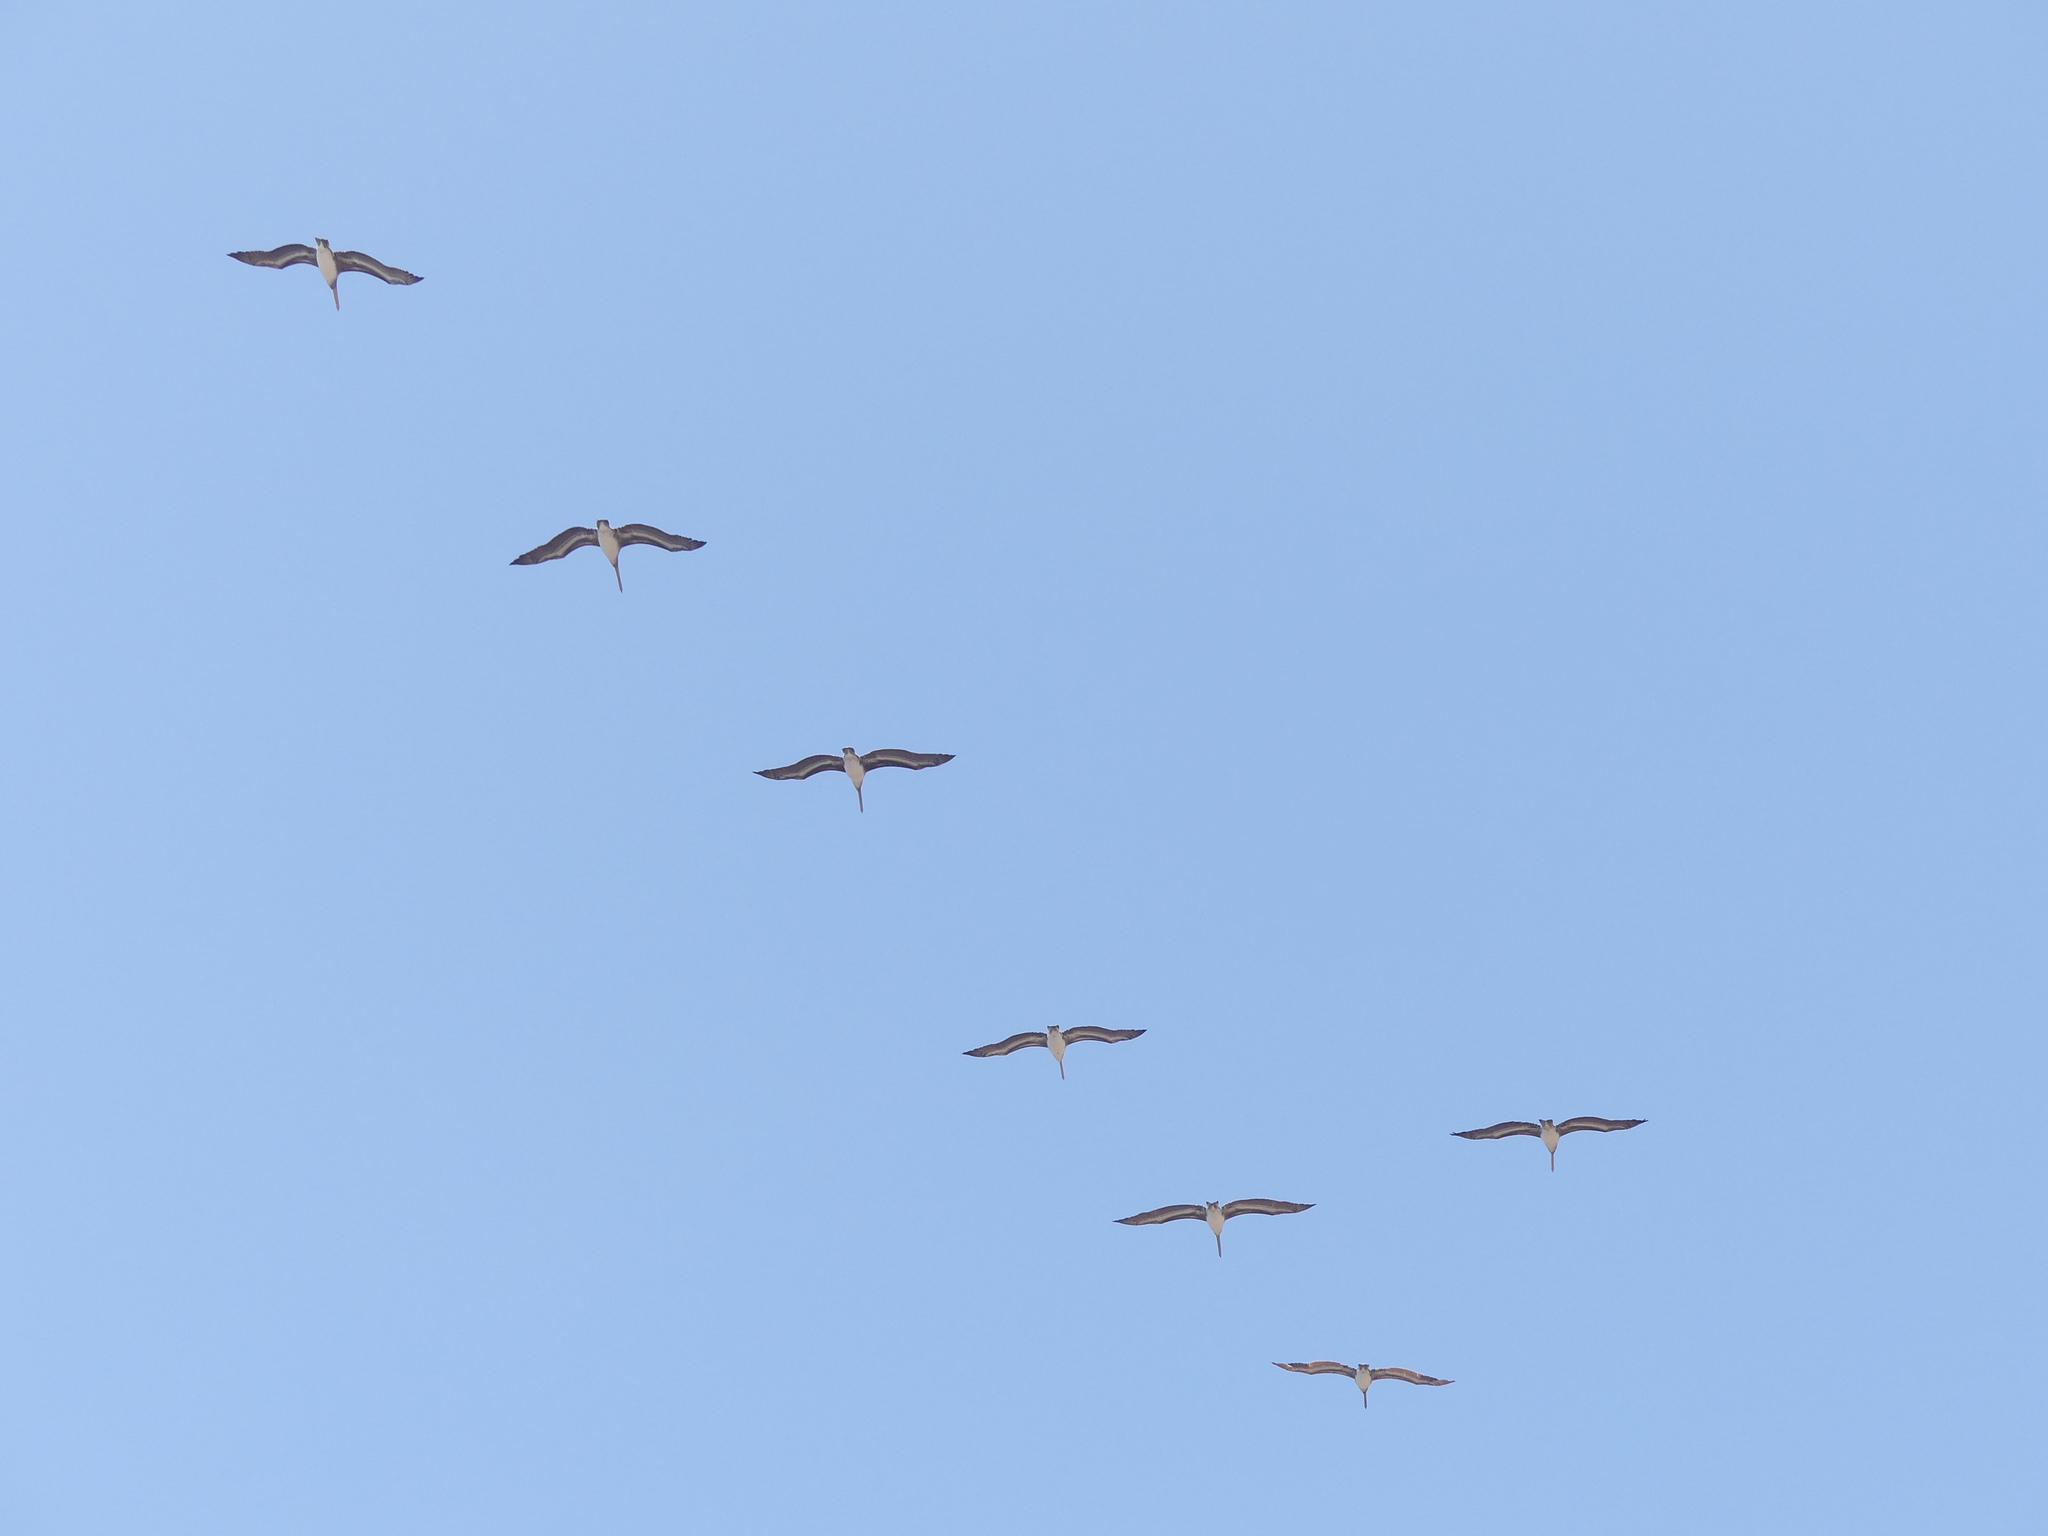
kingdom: Animalia
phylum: Chordata
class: Aves
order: Pelecaniformes
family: Pelecanidae
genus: Pelecanus
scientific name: Pelecanus occidentalis
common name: Brown pelican
